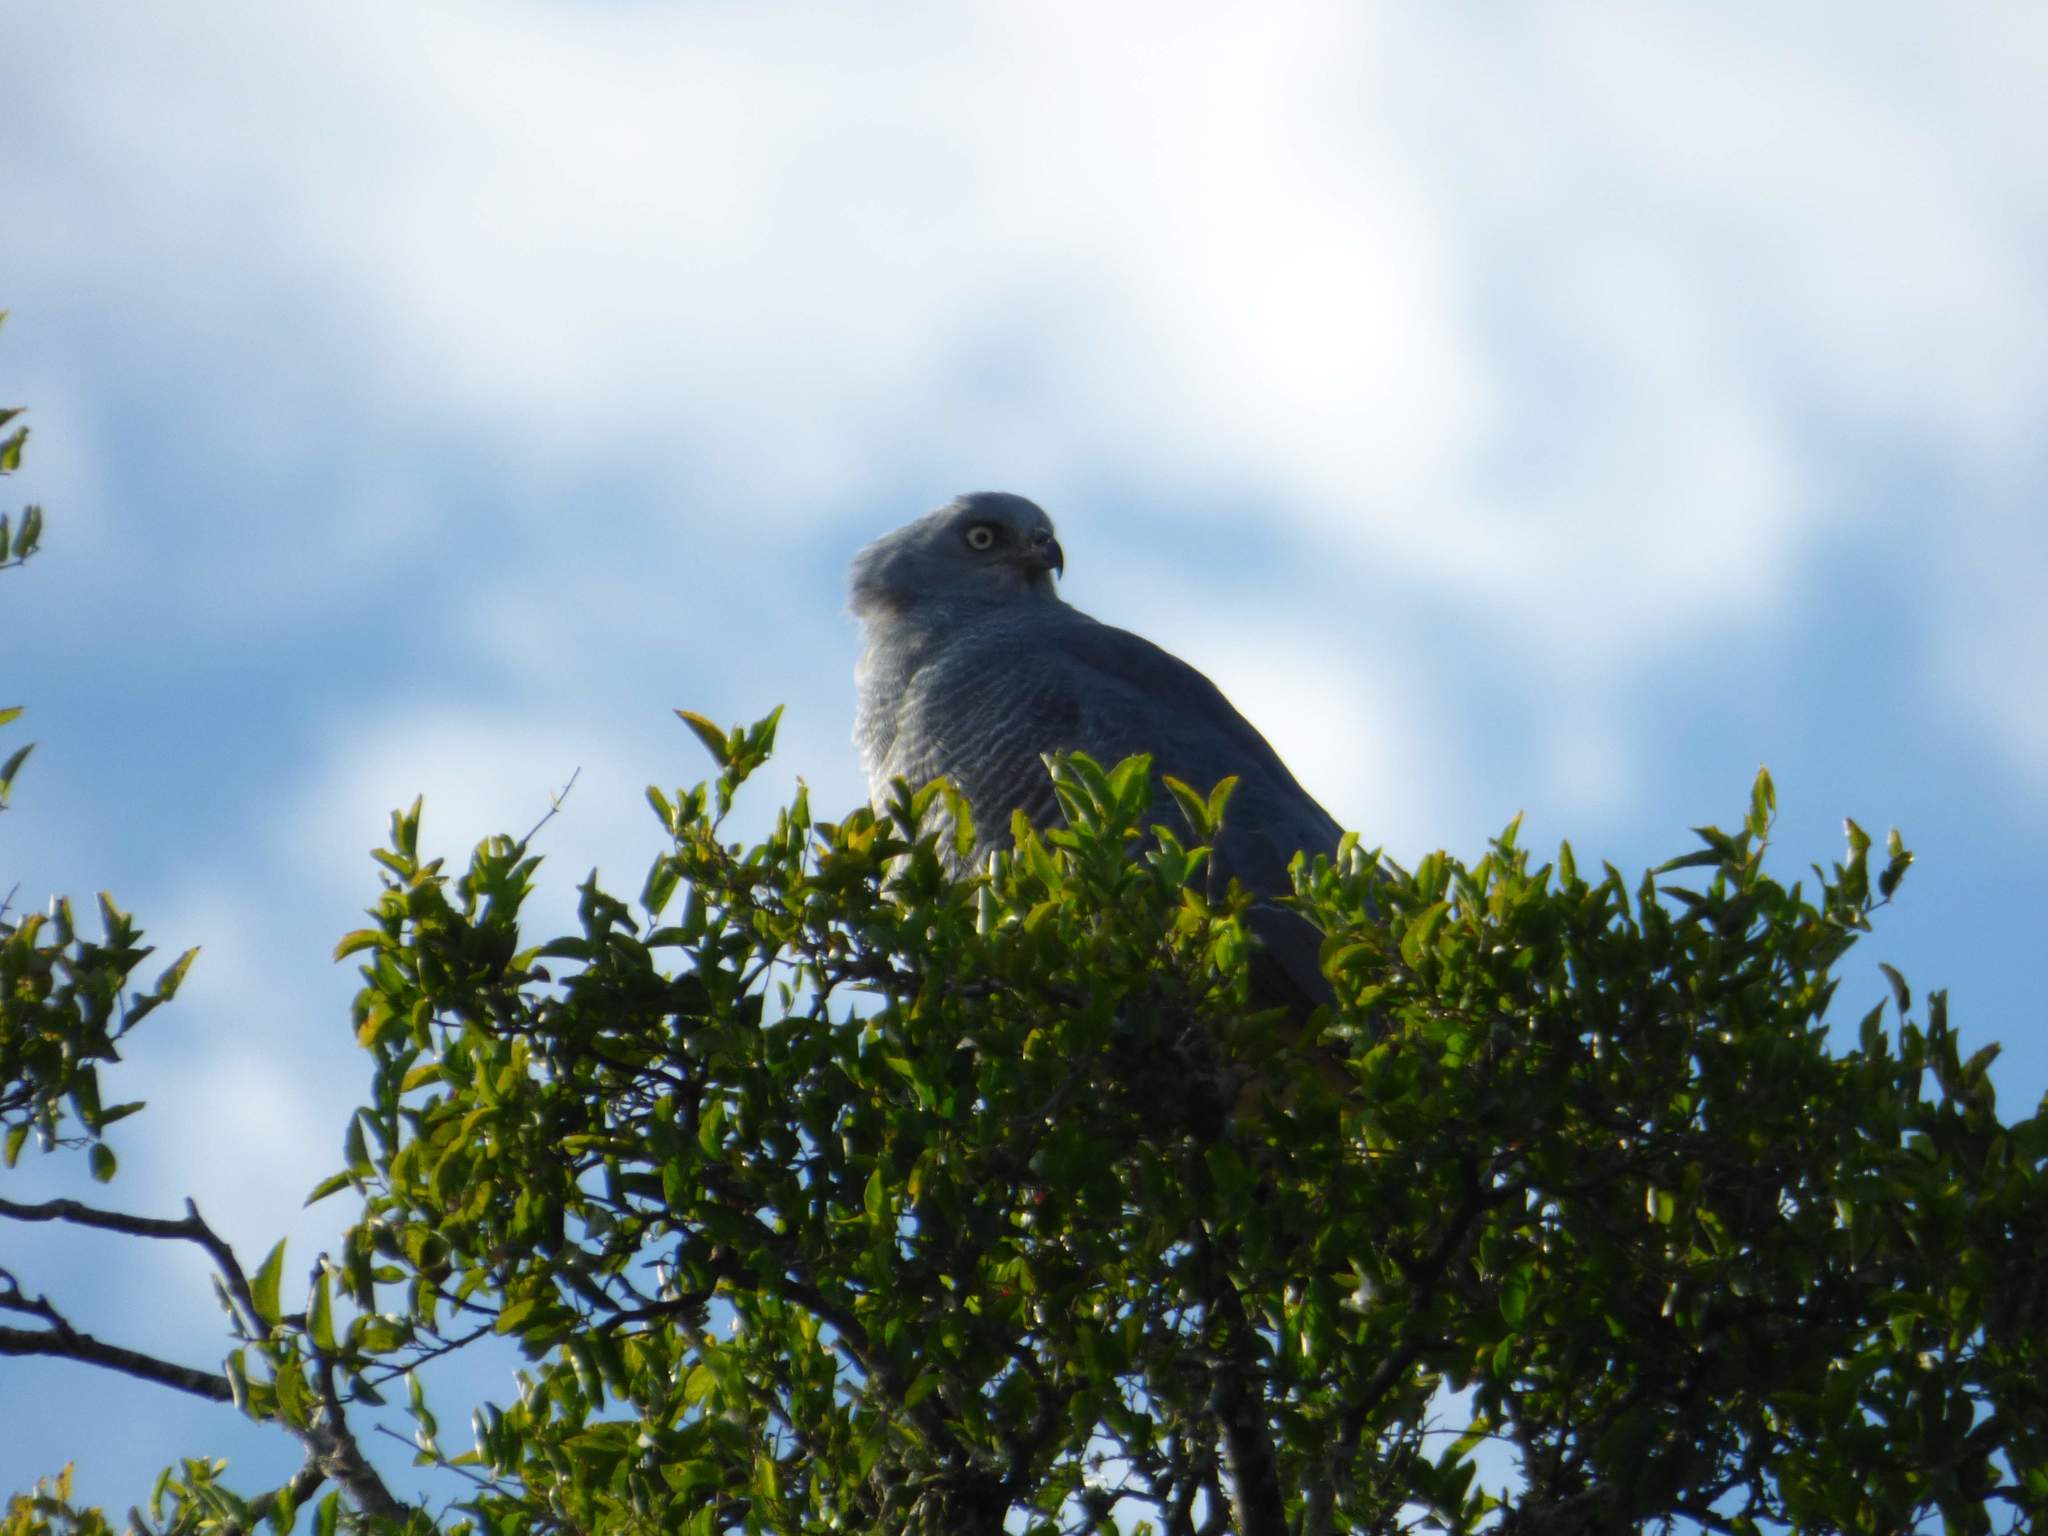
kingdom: Animalia
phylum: Chordata
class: Aves
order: Accipitriformes
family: Accipitridae
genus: Geranospiza
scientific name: Geranospiza caerulescens
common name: Crane hawk
